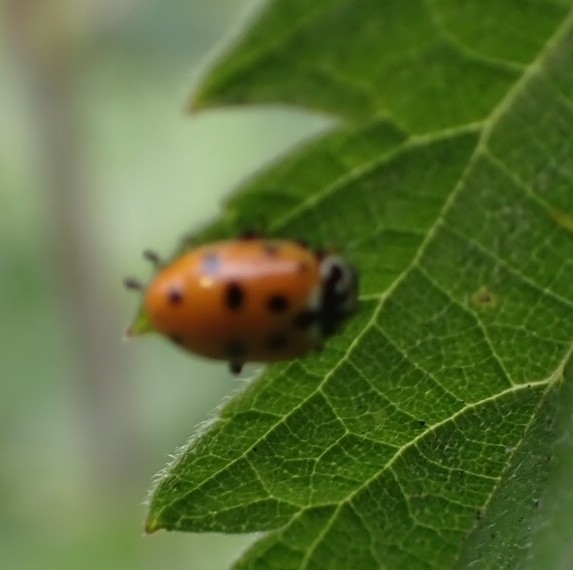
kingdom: Animalia
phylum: Arthropoda
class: Insecta
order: Coleoptera
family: Coccinellidae
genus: Hippodamia
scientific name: Hippodamia variegata
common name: Ladybird beetle
